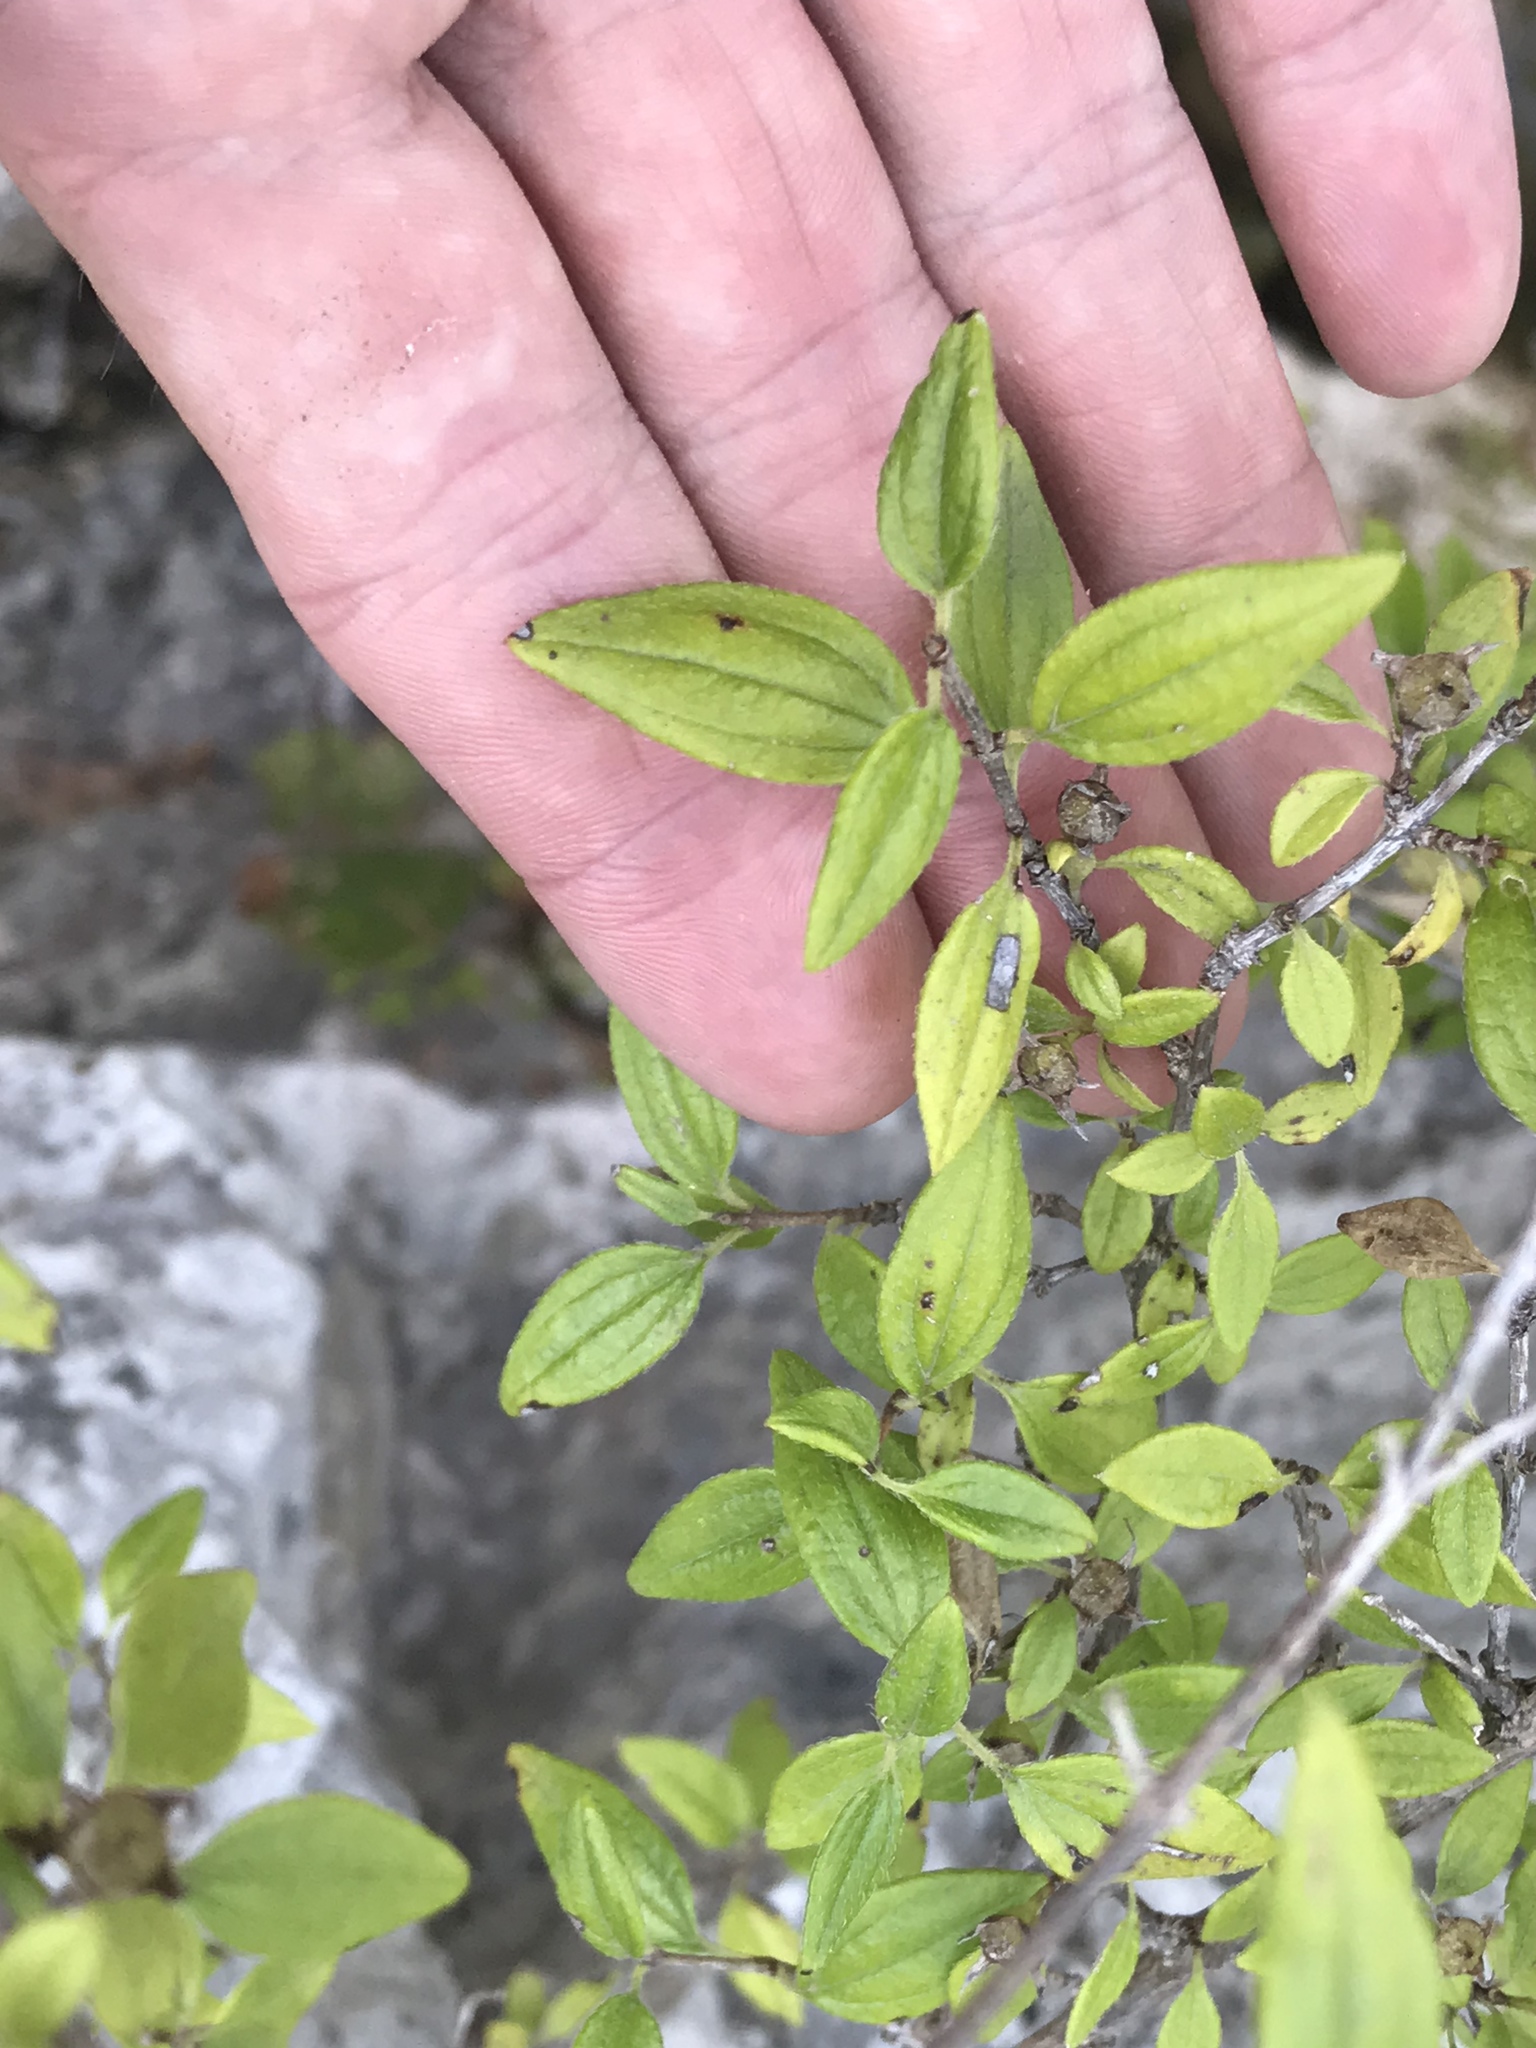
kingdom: Plantae
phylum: Tracheophyta
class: Magnoliopsida
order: Cornales
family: Hydrangeaceae
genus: Philadelphus
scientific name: Philadelphus texensis
